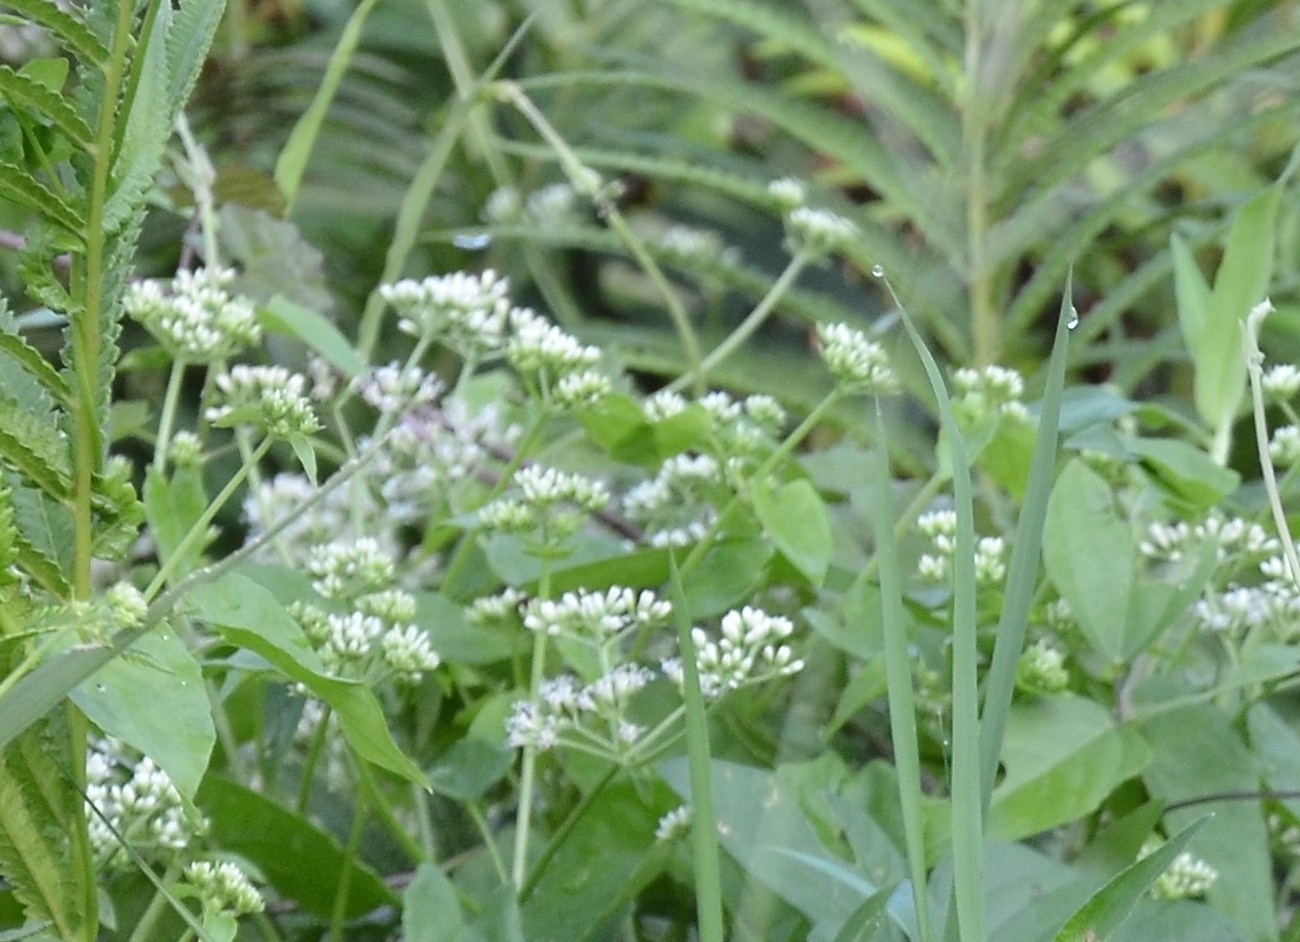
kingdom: Plantae
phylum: Tracheophyta
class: Magnoliopsida
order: Asterales
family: Asteraceae
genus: Mikania
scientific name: Mikania micrantha
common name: Mile-a-minute
